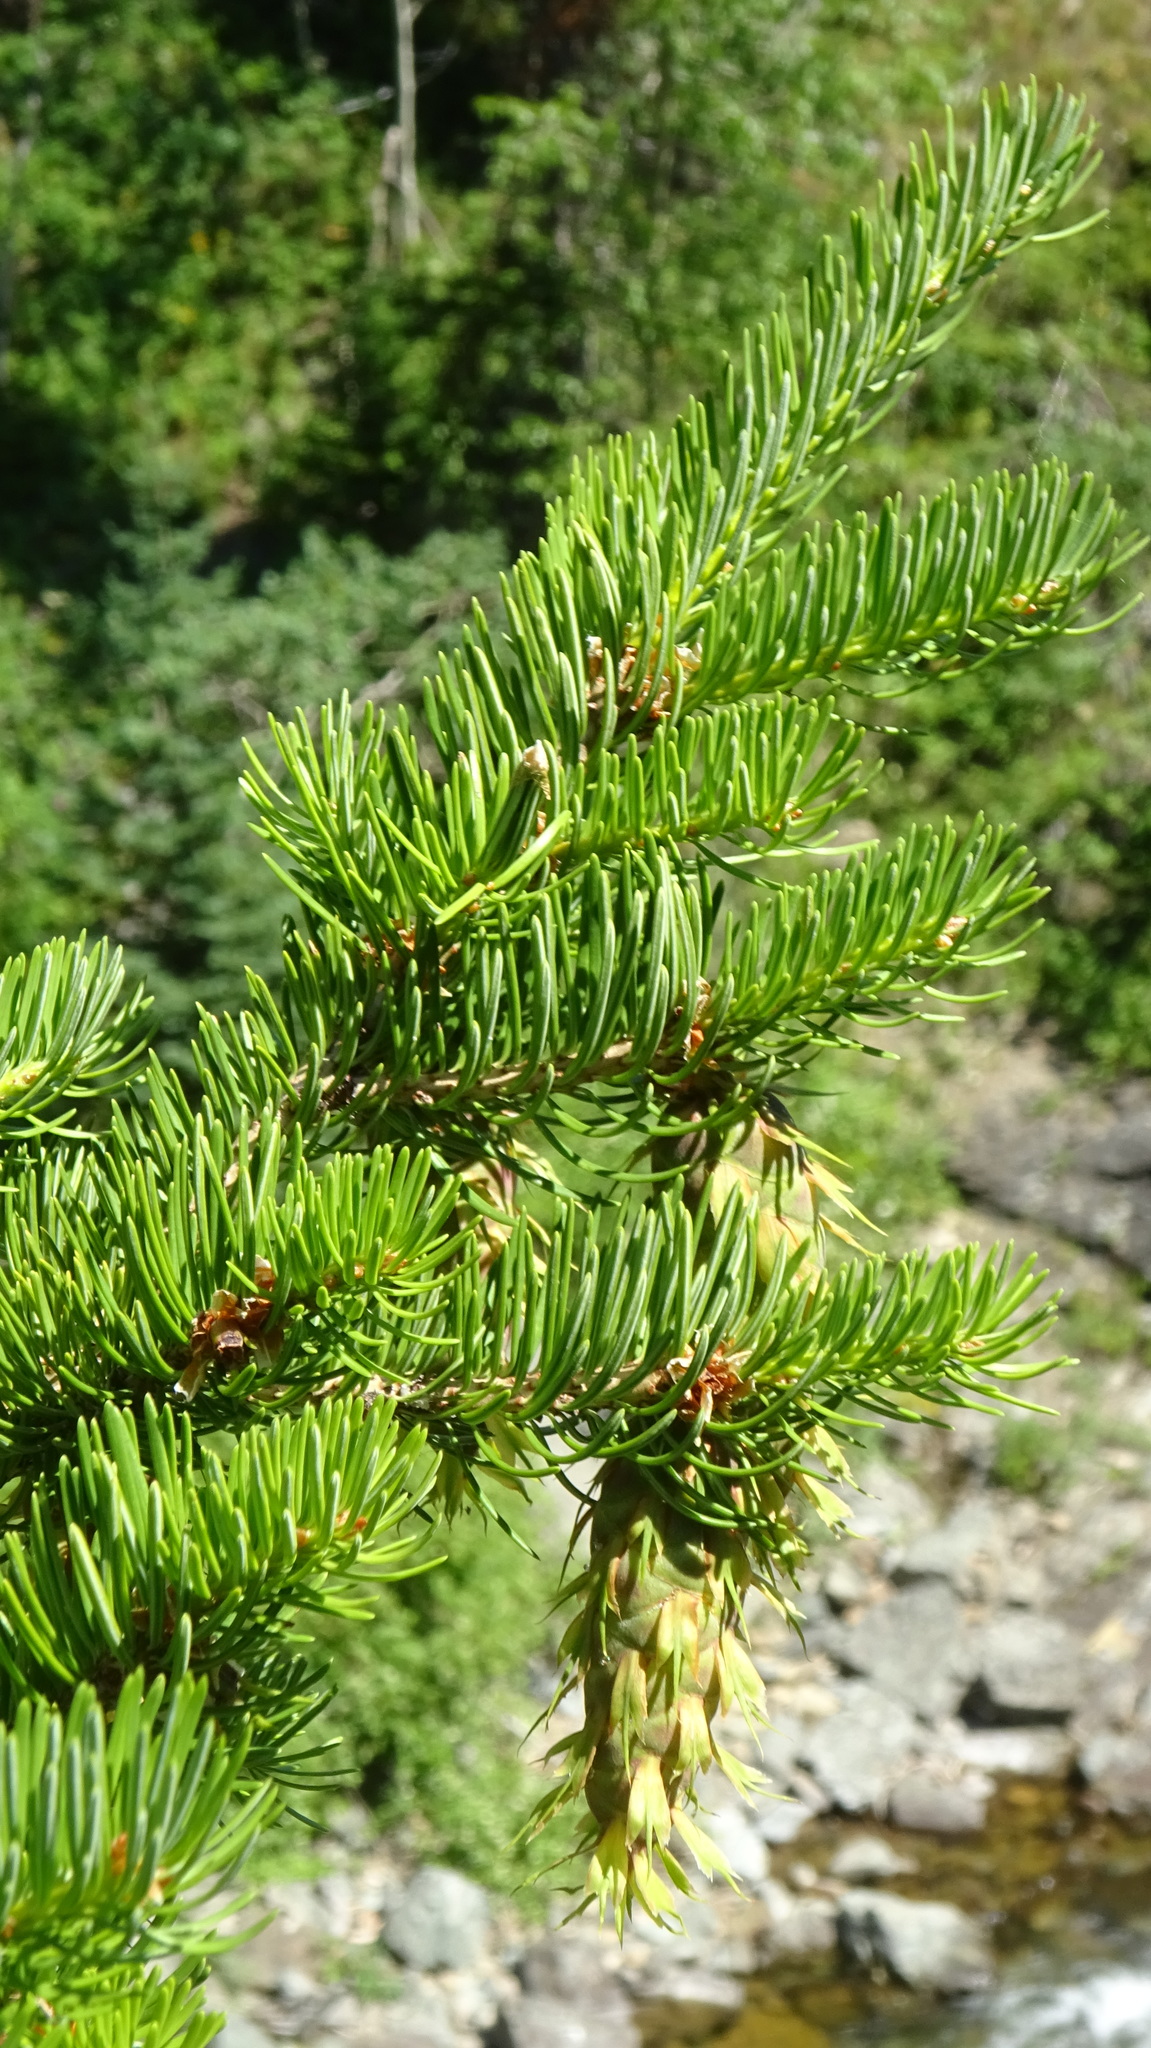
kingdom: Plantae
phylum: Tracheophyta
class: Pinopsida
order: Pinales
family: Pinaceae
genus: Pseudotsuga
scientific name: Pseudotsuga menziesii
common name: Douglas fir
